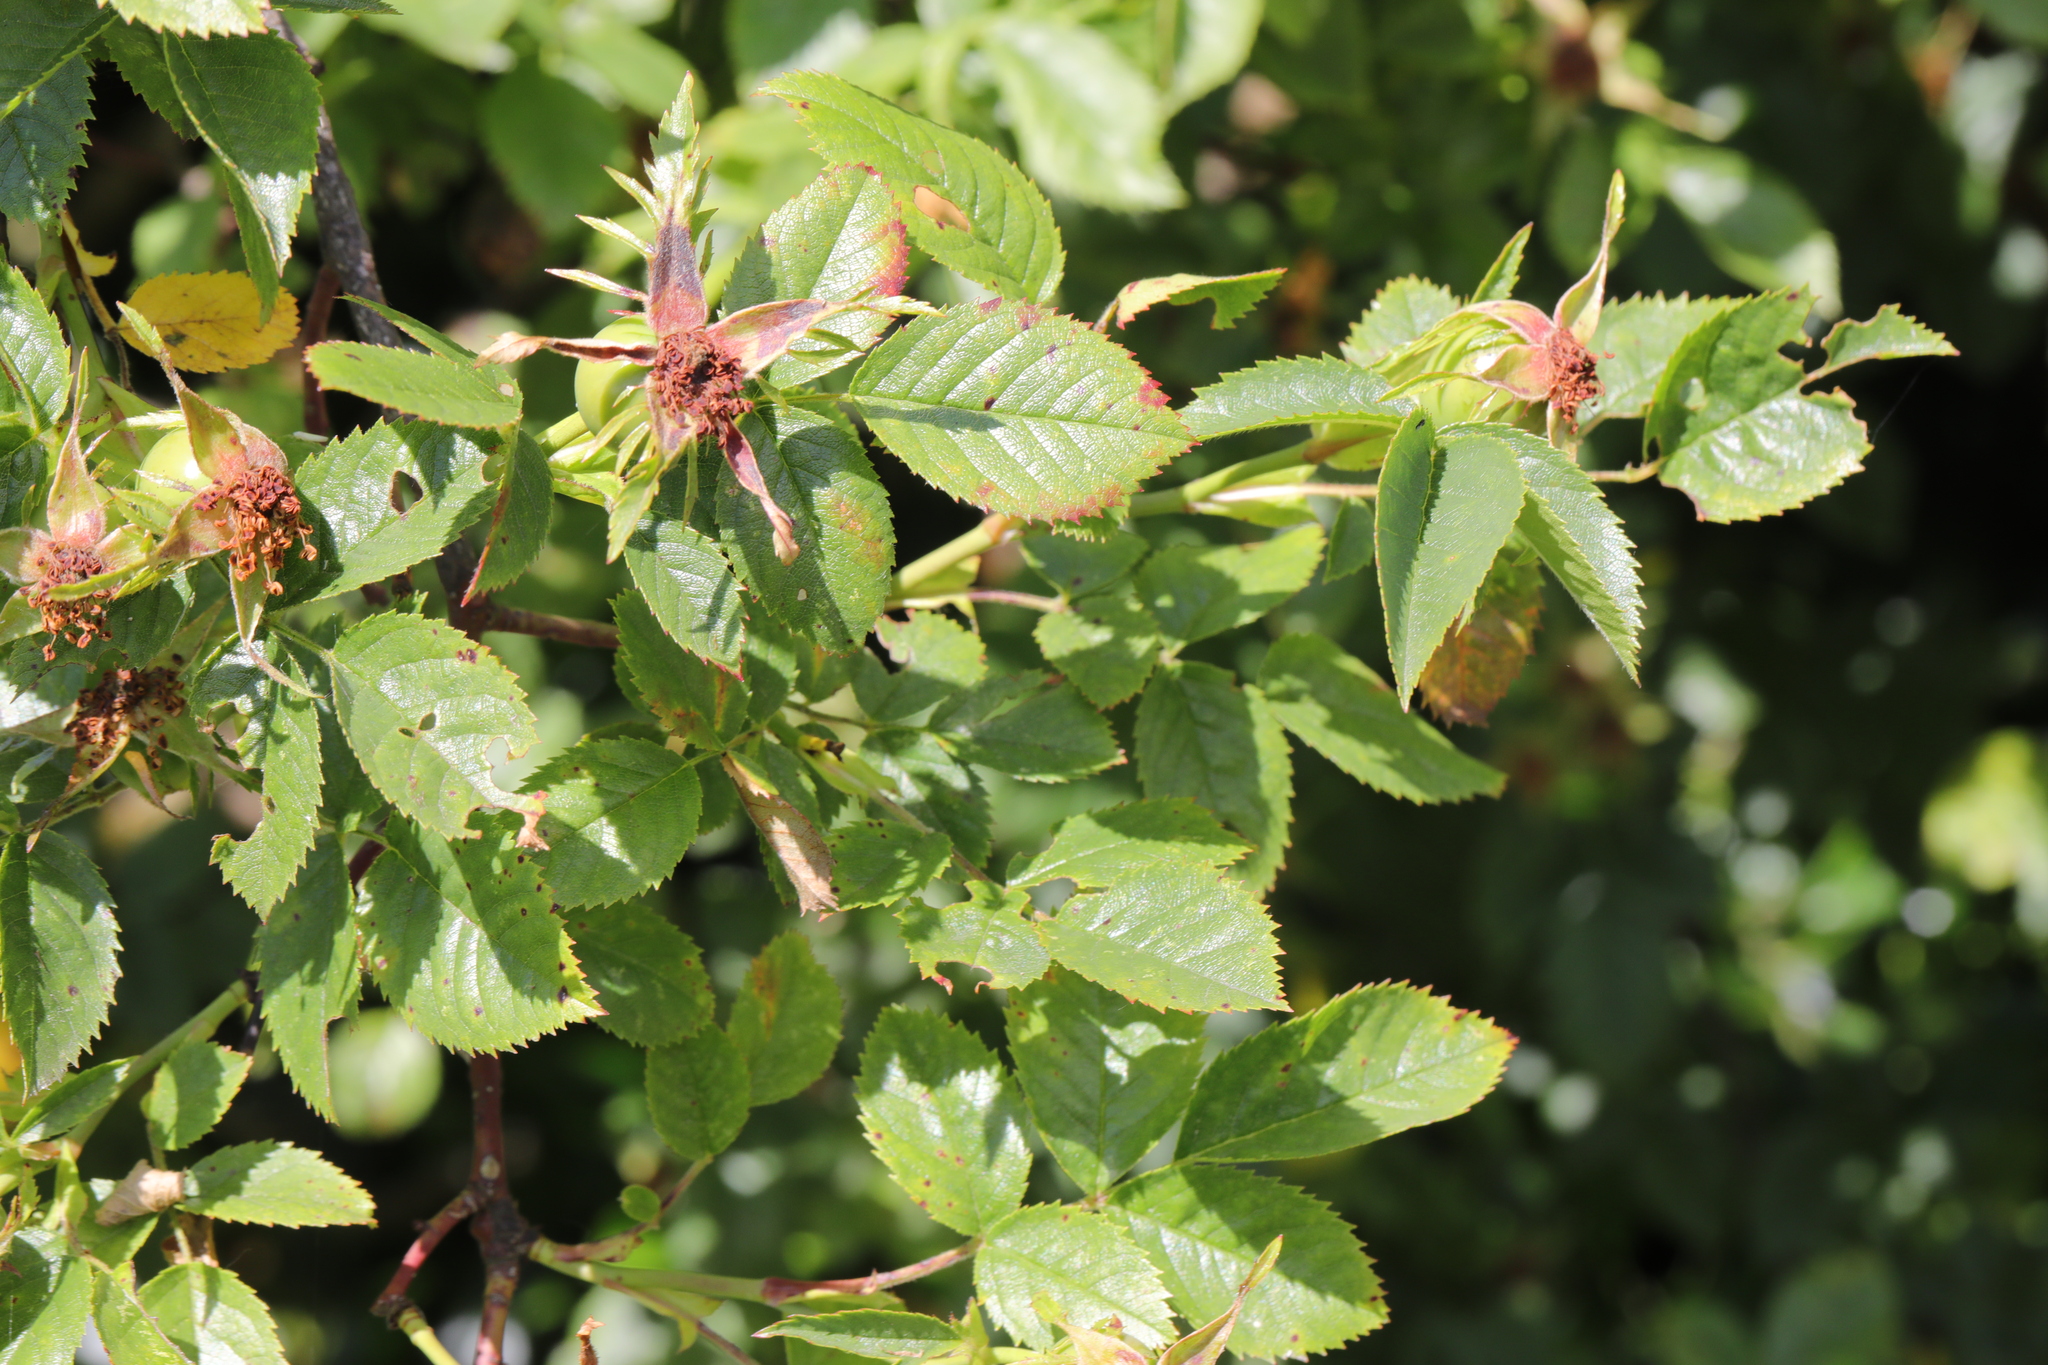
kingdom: Plantae
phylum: Tracheophyta
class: Magnoliopsida
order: Rosales
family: Rosaceae
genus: Rosa
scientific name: Rosa canina
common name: Dog rose
